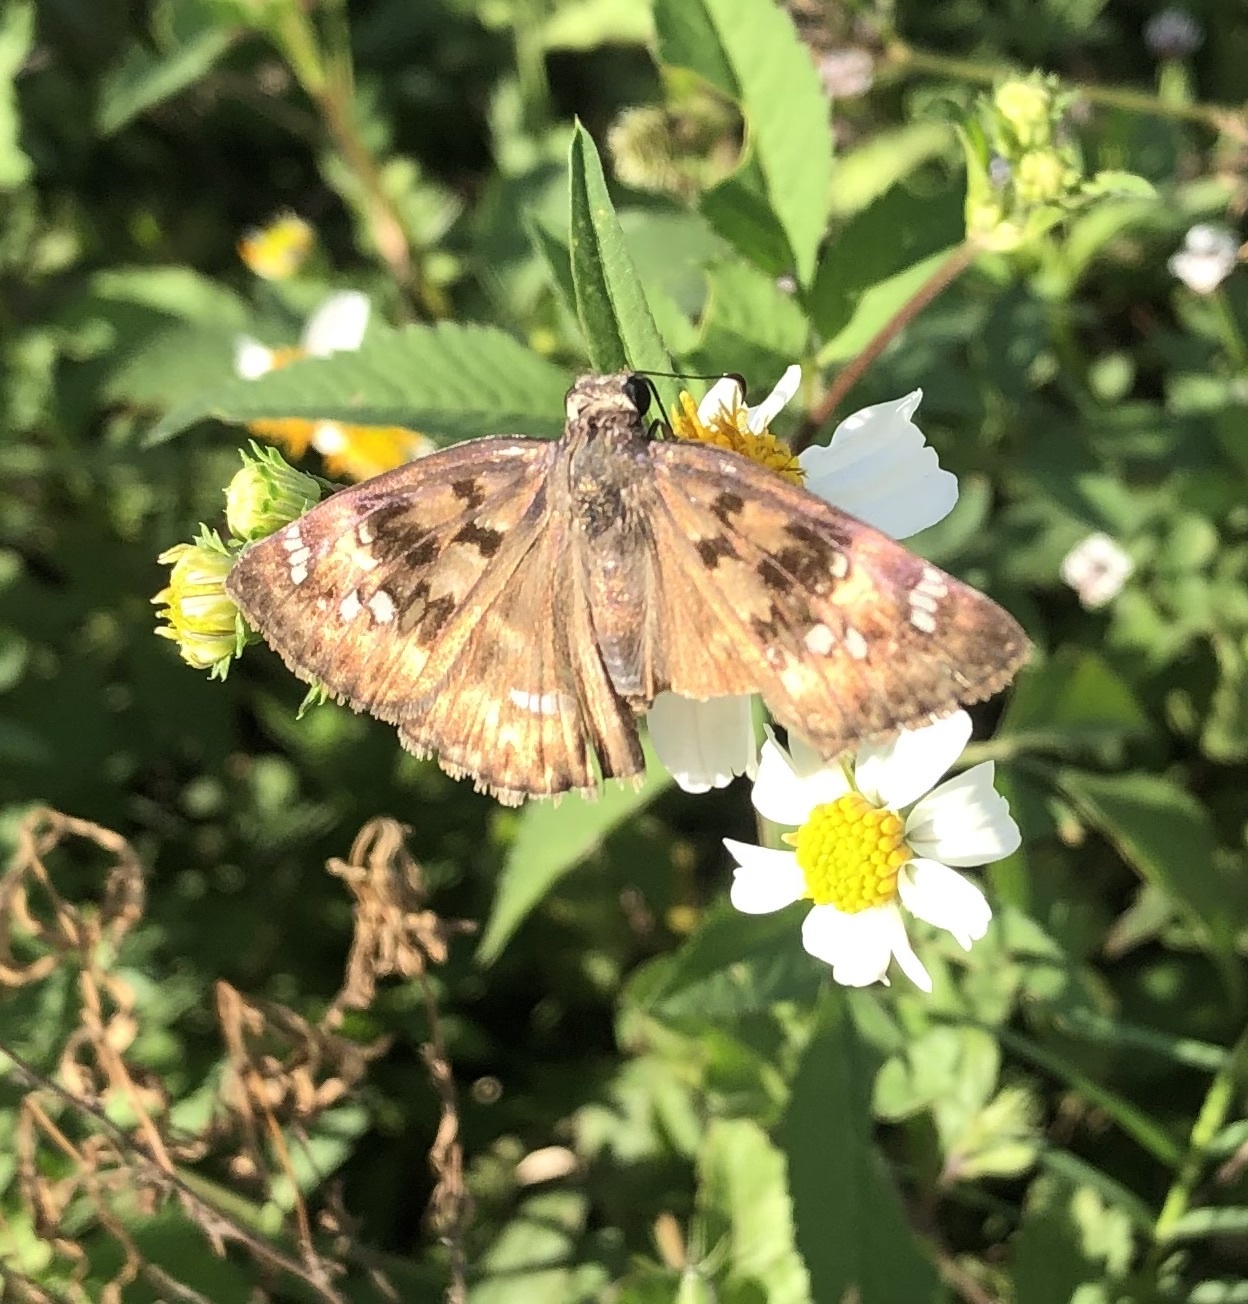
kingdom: Animalia
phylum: Arthropoda
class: Insecta
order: Lepidoptera
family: Hesperiidae
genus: Erynnis
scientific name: Erynnis horatius
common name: Horace's duskywing
